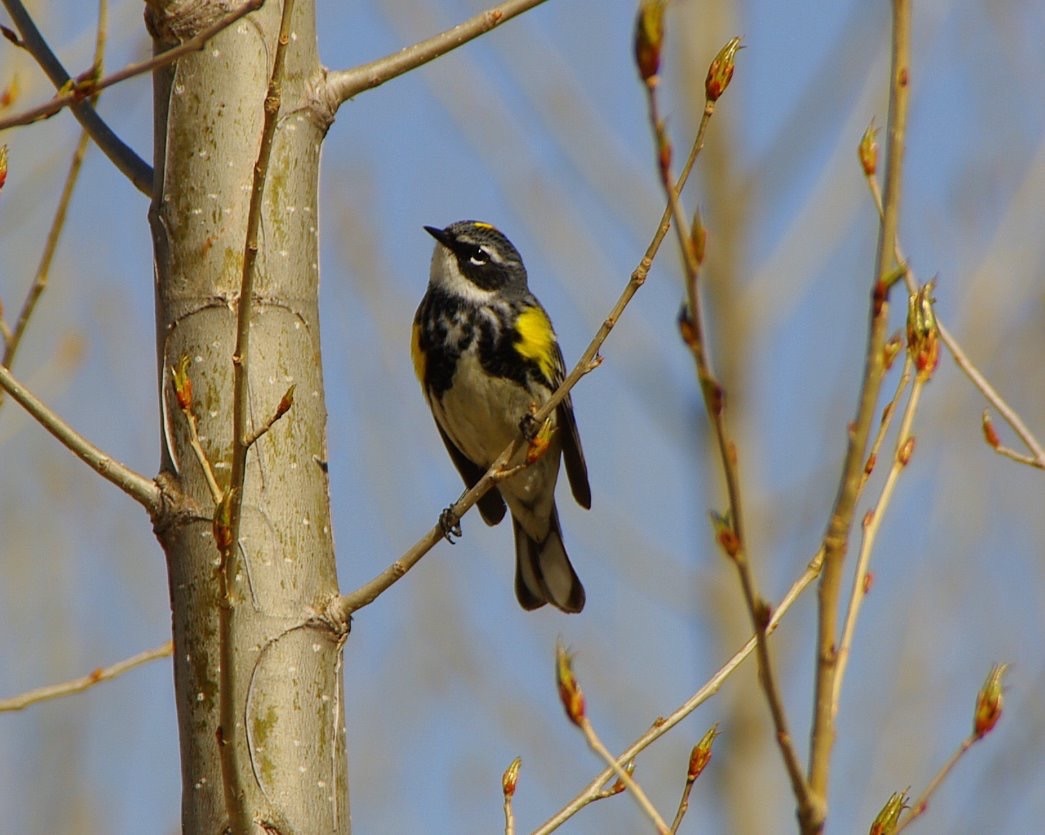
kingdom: Animalia
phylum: Chordata
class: Aves
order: Passeriformes
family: Parulidae
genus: Setophaga
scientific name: Setophaga coronata
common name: Myrtle warbler
